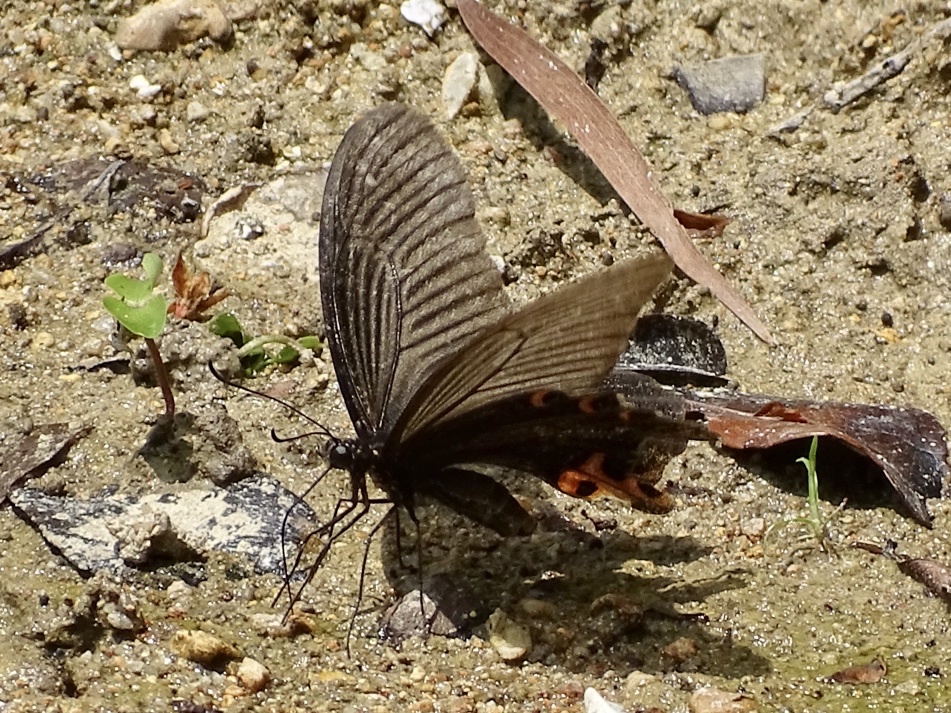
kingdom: Animalia
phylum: Arthropoda
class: Insecta
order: Lepidoptera
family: Papilionidae
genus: Papilio
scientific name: Papilio protenor
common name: Spangle
